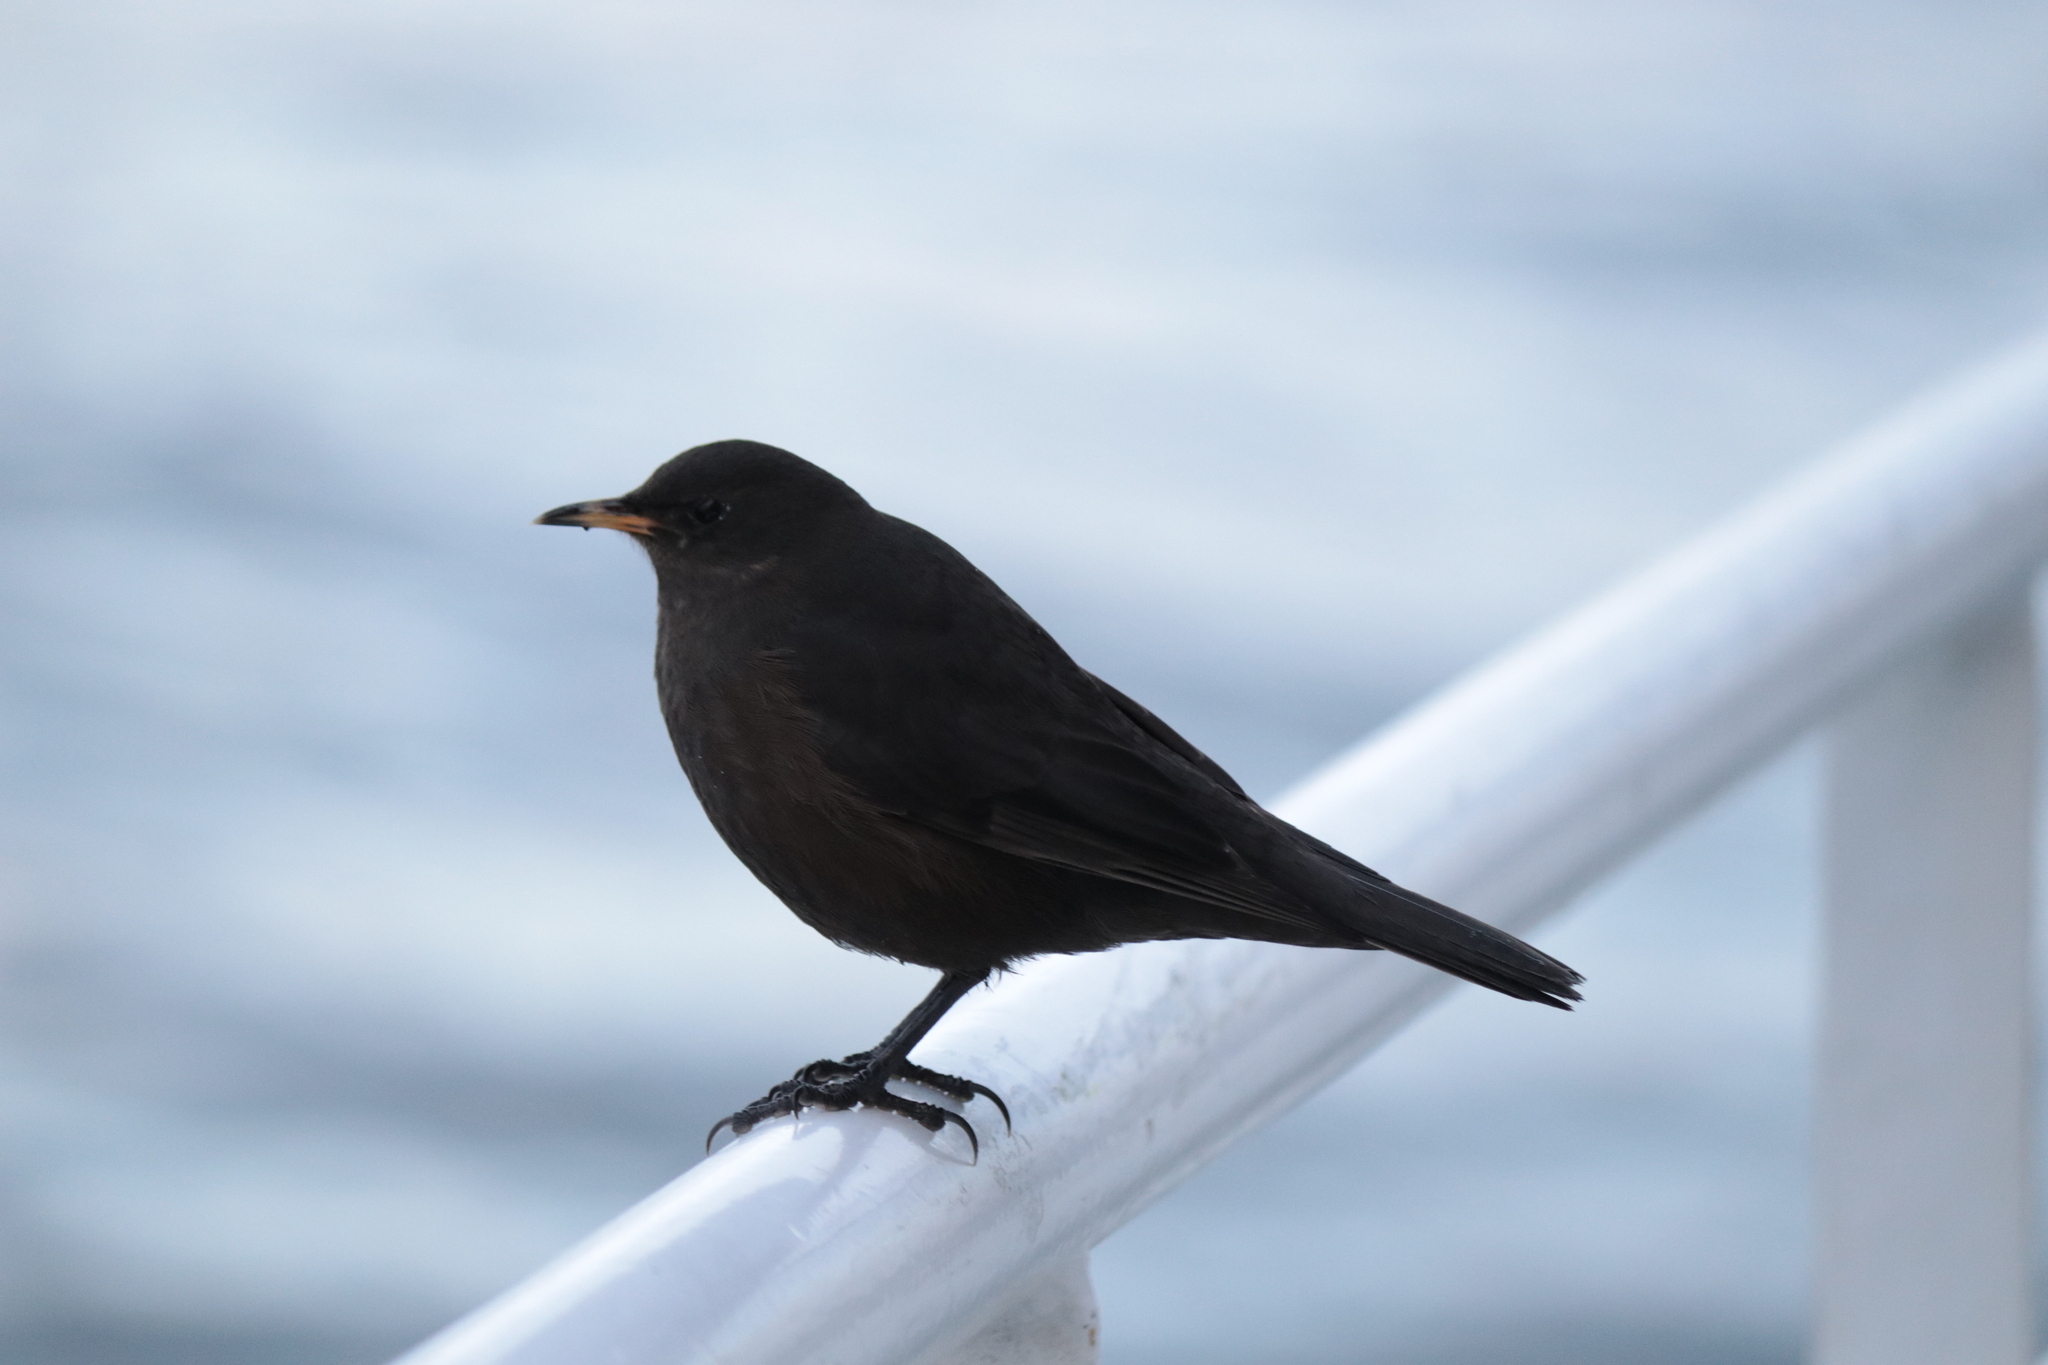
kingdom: Animalia
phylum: Chordata
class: Aves
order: Passeriformes
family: Furnariidae
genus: Cinclodes
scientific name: Cinclodes antarcticus
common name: Blackish cinclodes
